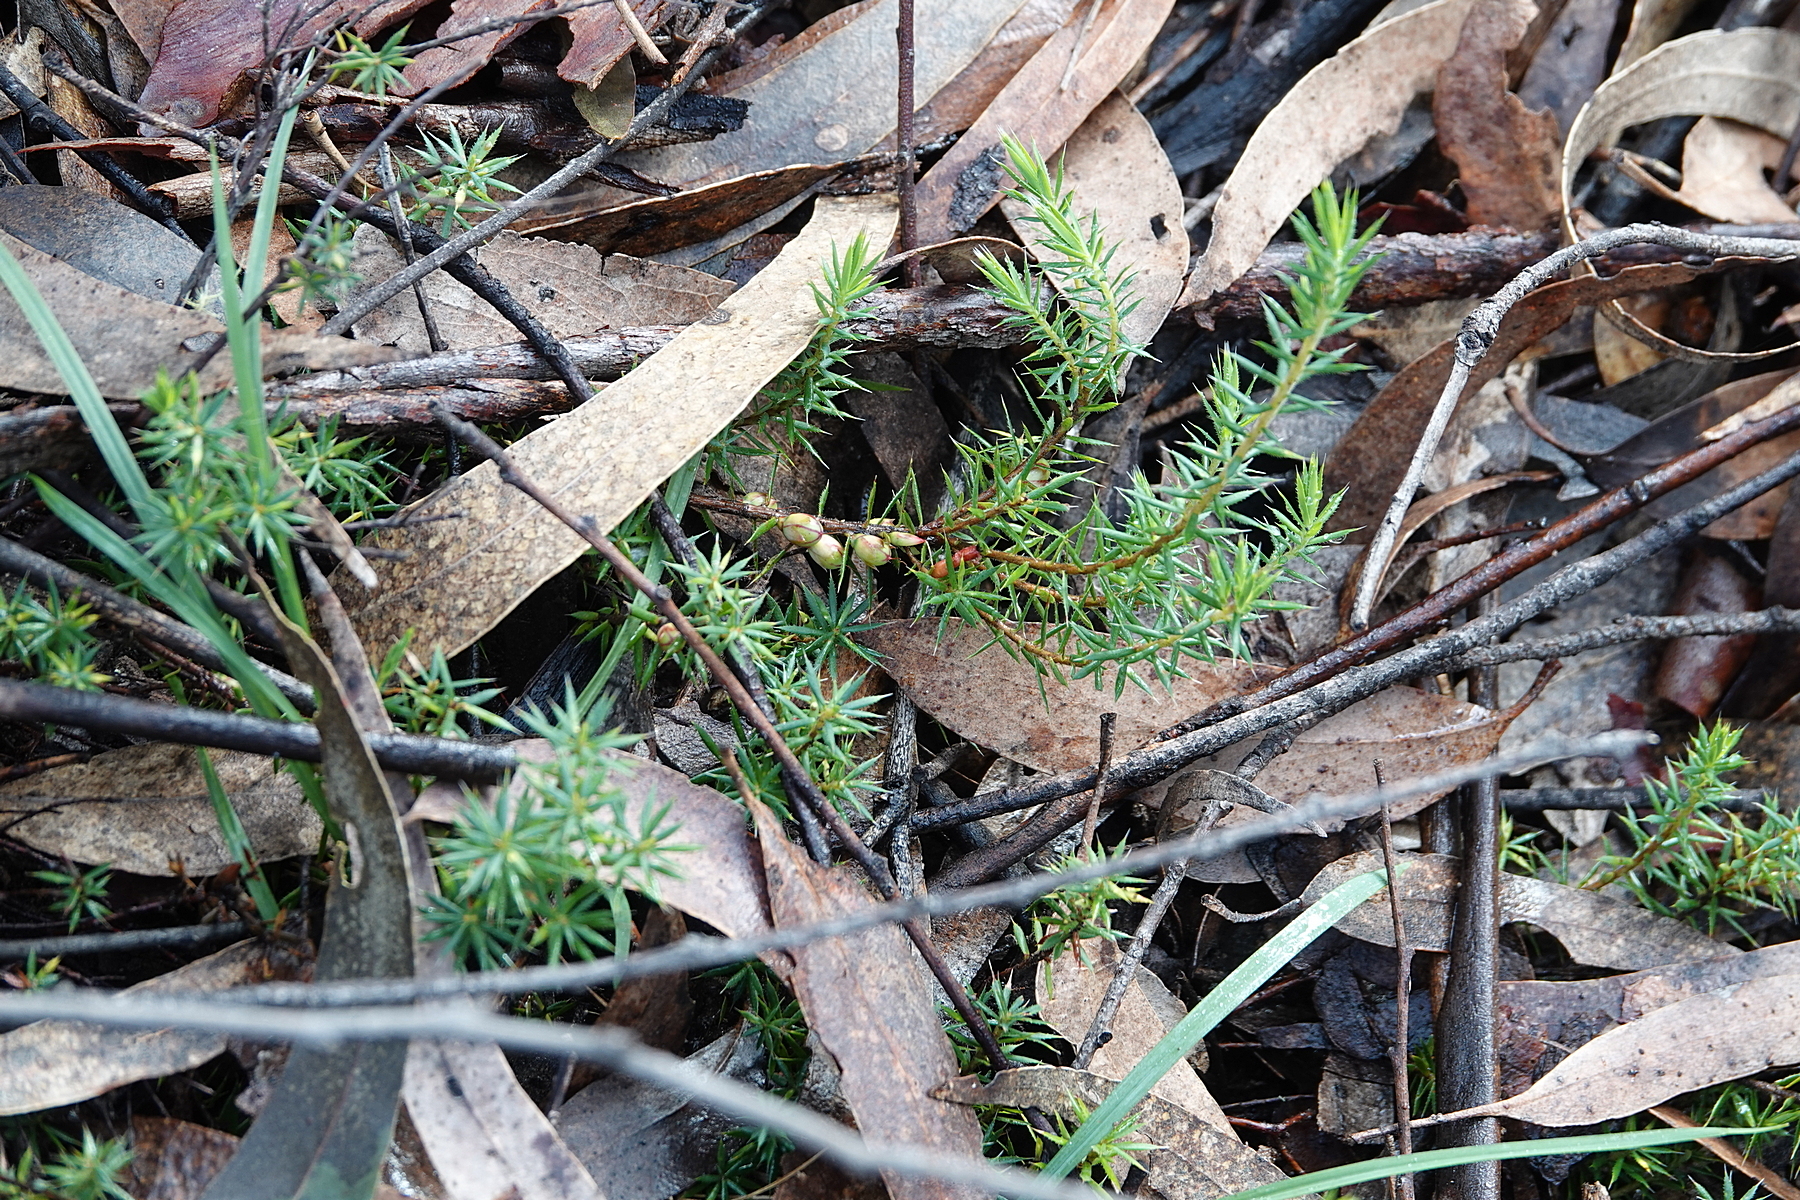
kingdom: Plantae
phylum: Tracheophyta
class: Magnoliopsida
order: Ericales
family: Ericaceae
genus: Styphelia
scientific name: Styphelia humifusa
